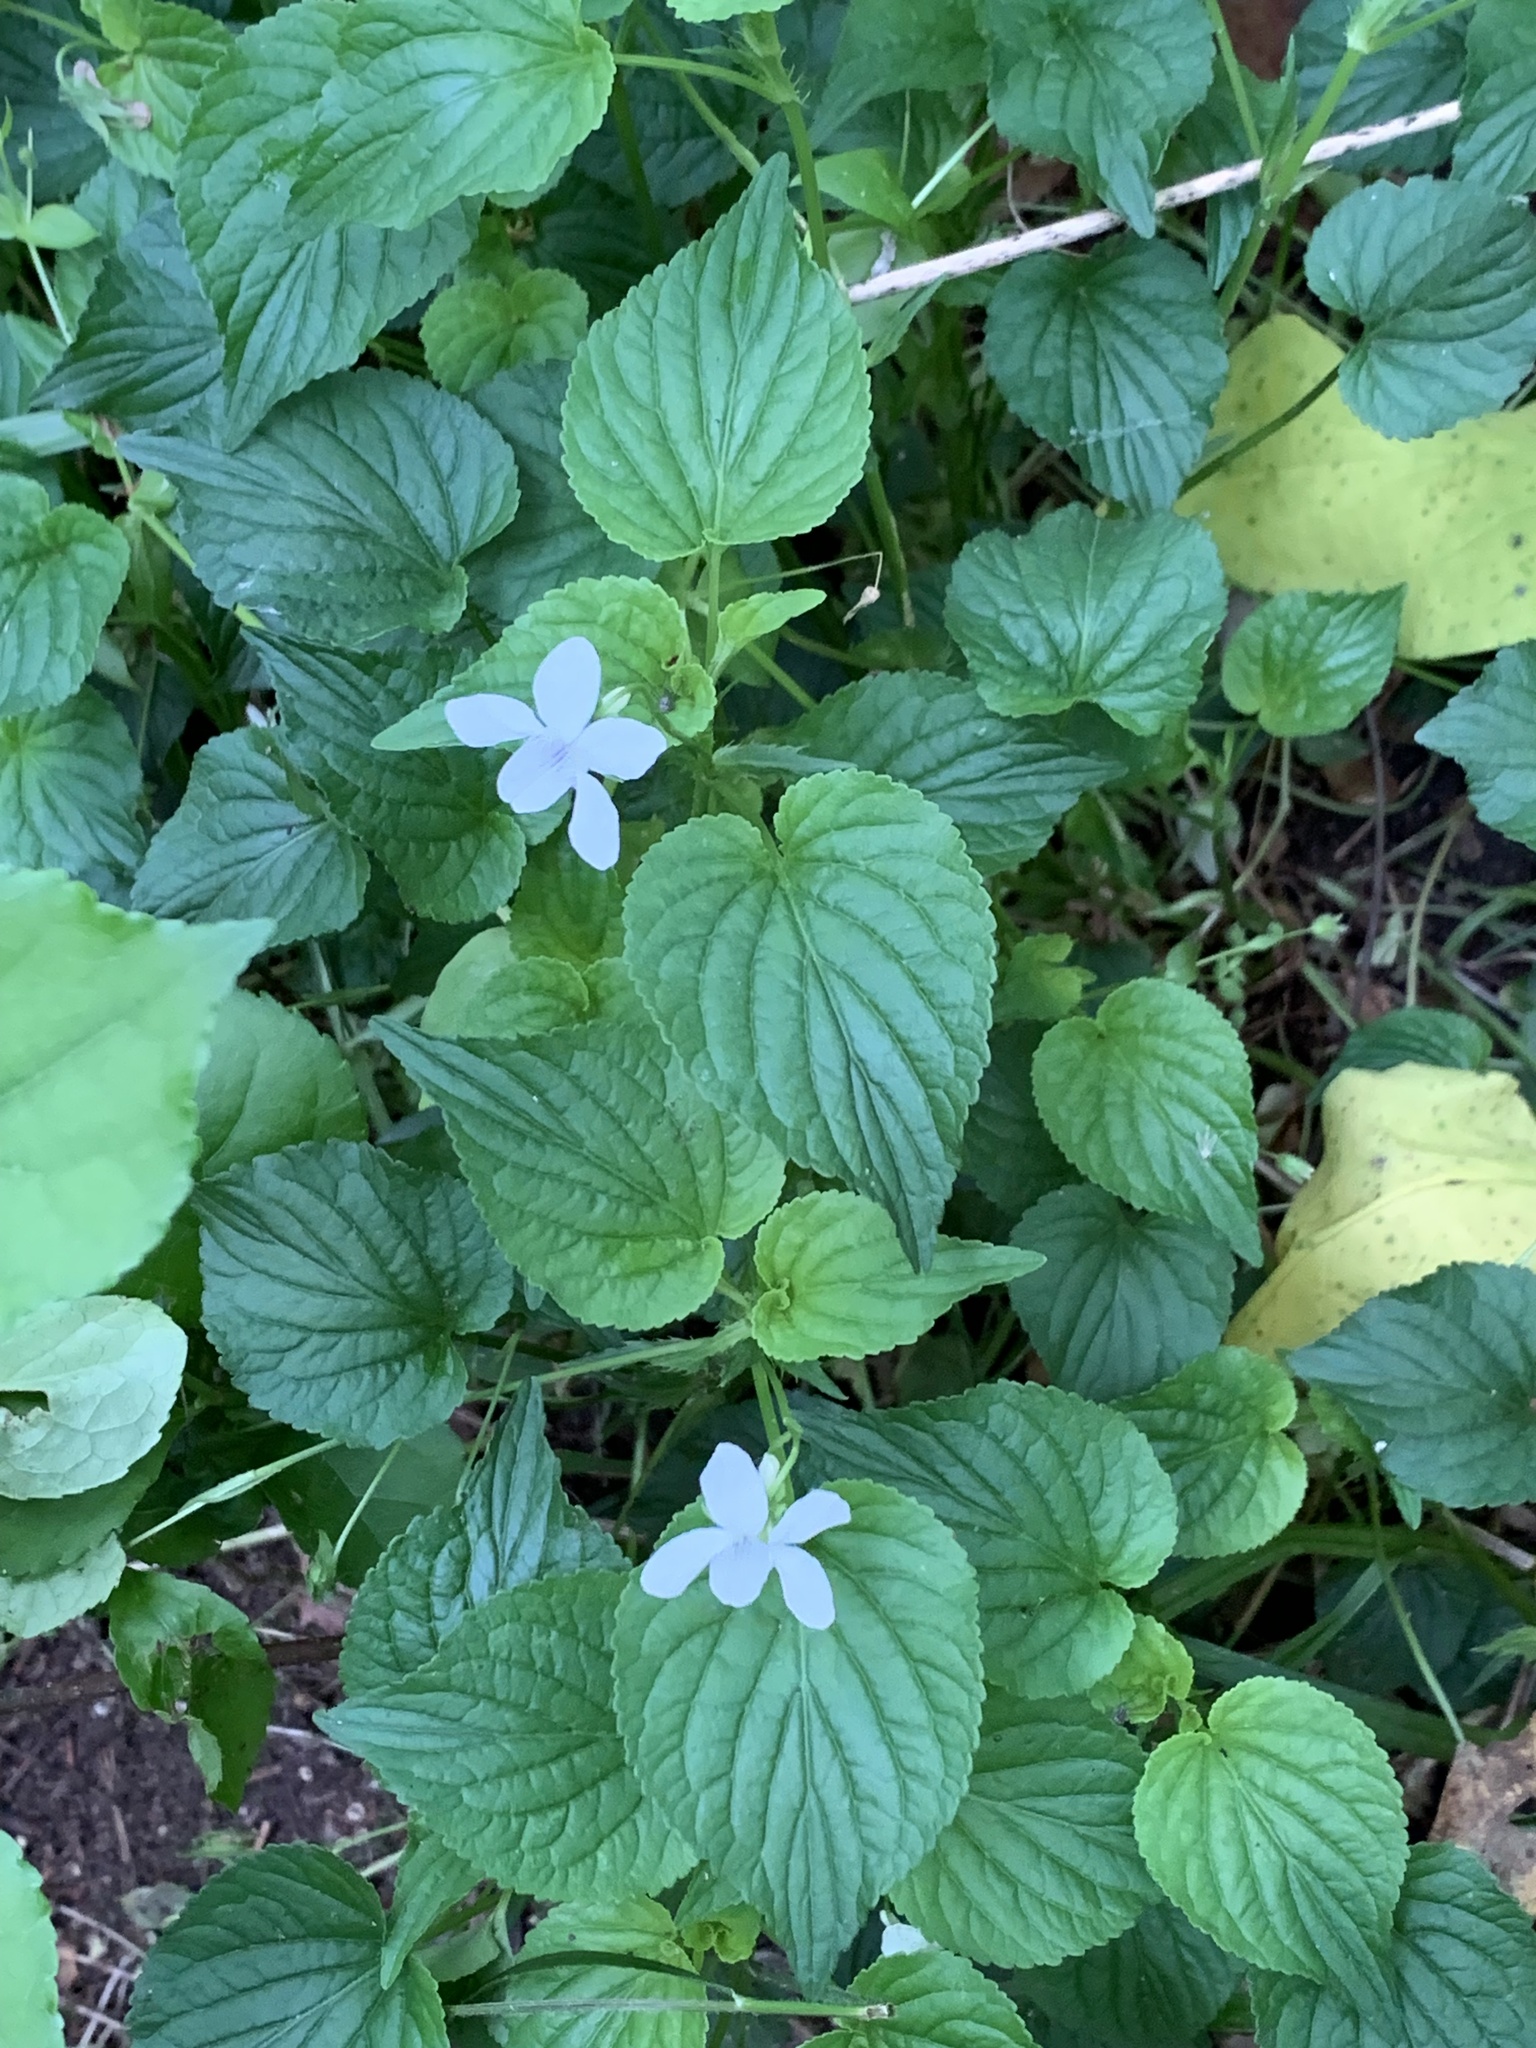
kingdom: Plantae
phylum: Tracheophyta
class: Magnoliopsida
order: Malpighiales
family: Violaceae
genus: Viola
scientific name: Viola striata
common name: Cream violet
